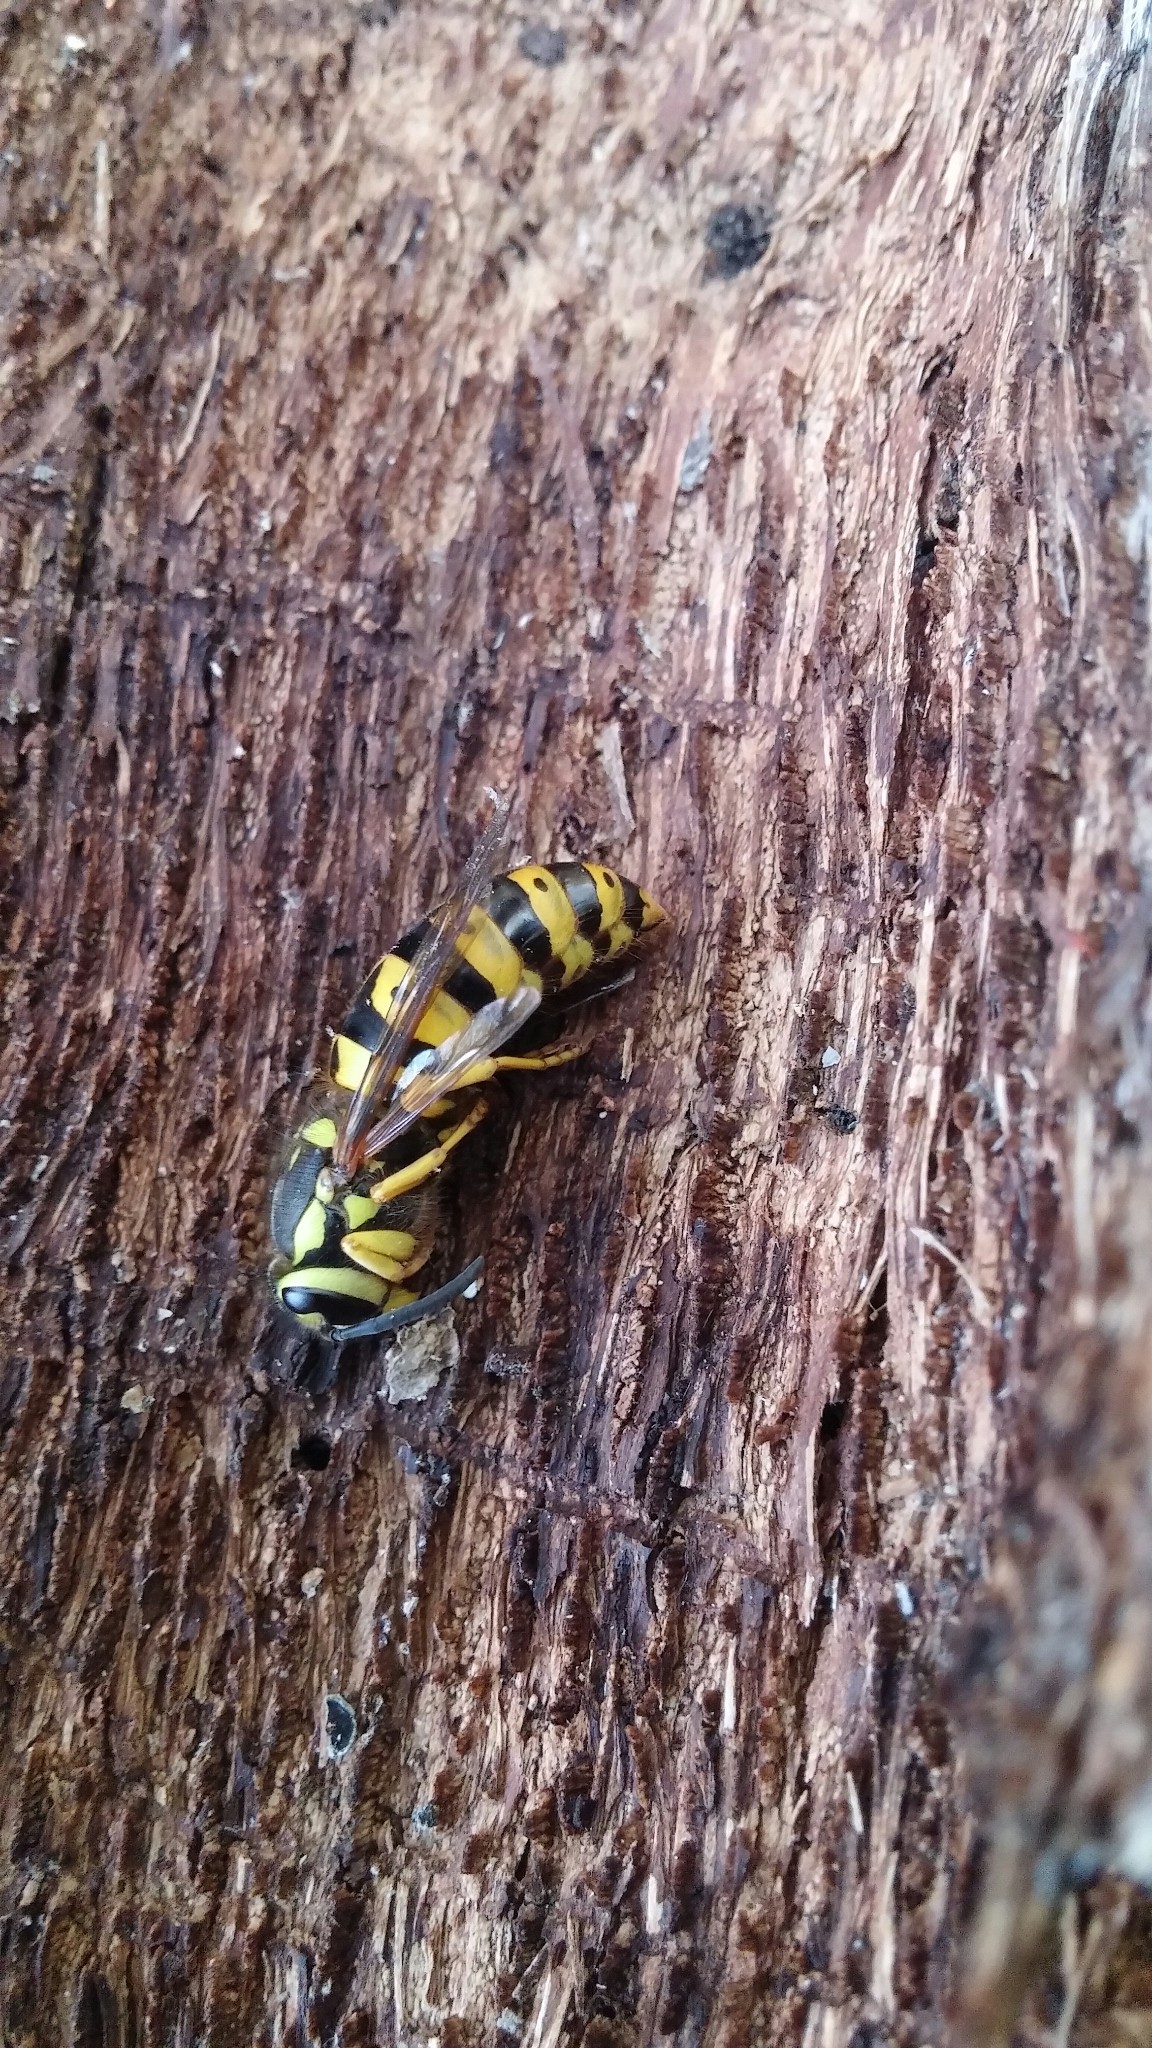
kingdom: Animalia
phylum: Arthropoda
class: Insecta
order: Hymenoptera
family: Vespidae
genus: Vespula
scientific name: Vespula pensylvanica
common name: Western yellowjacket
